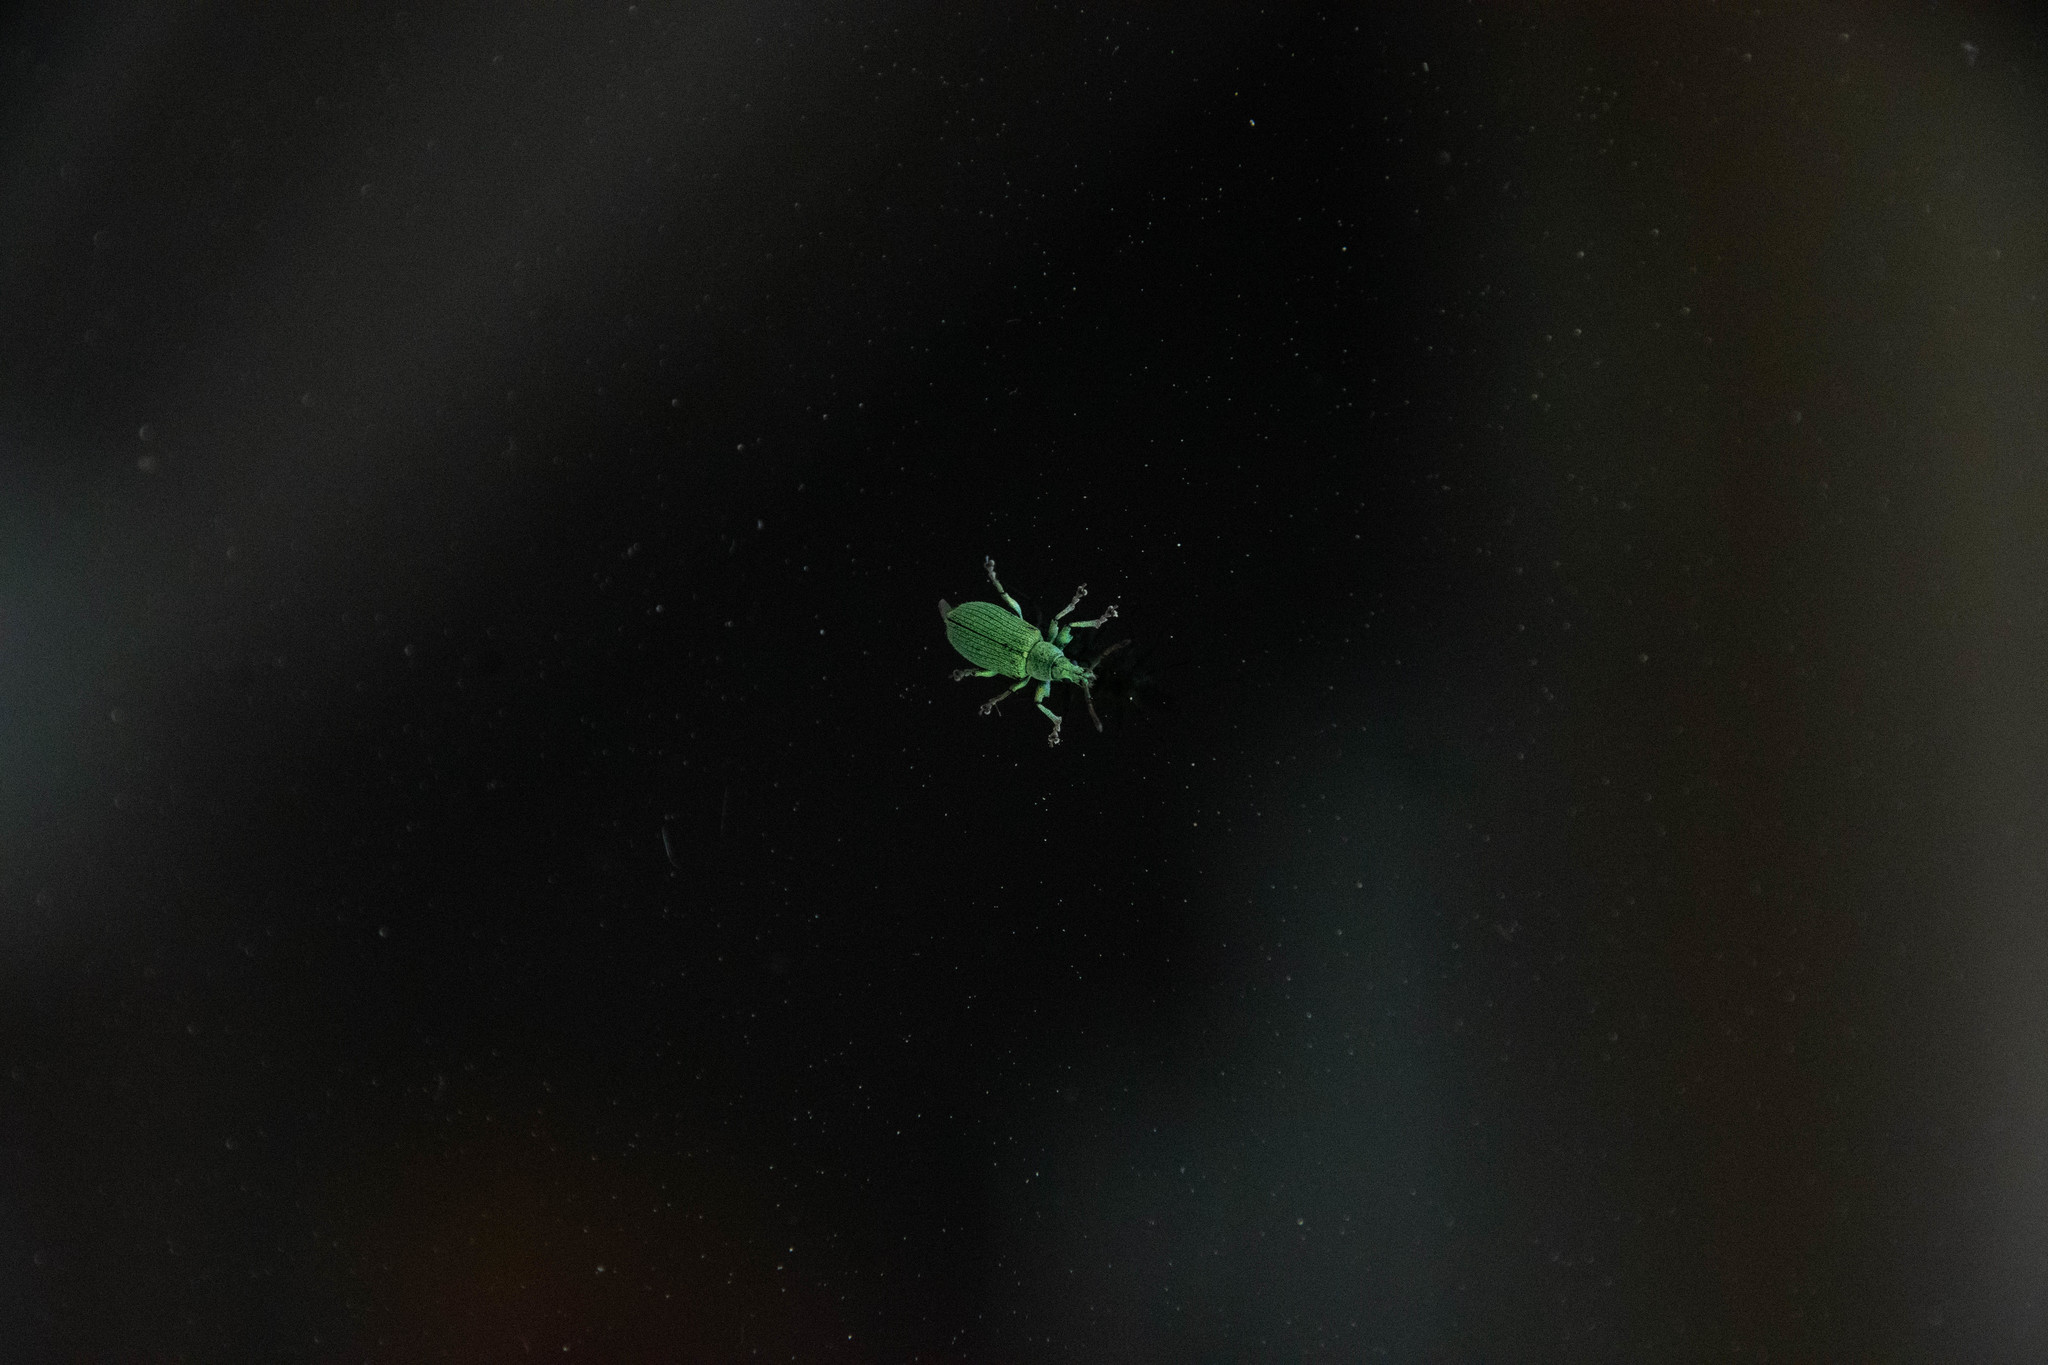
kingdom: Animalia
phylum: Arthropoda
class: Insecta
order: Coleoptera
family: Curculionidae
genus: Phyllobius
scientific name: Phyllobius maculicornis
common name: Green leaf weevil
